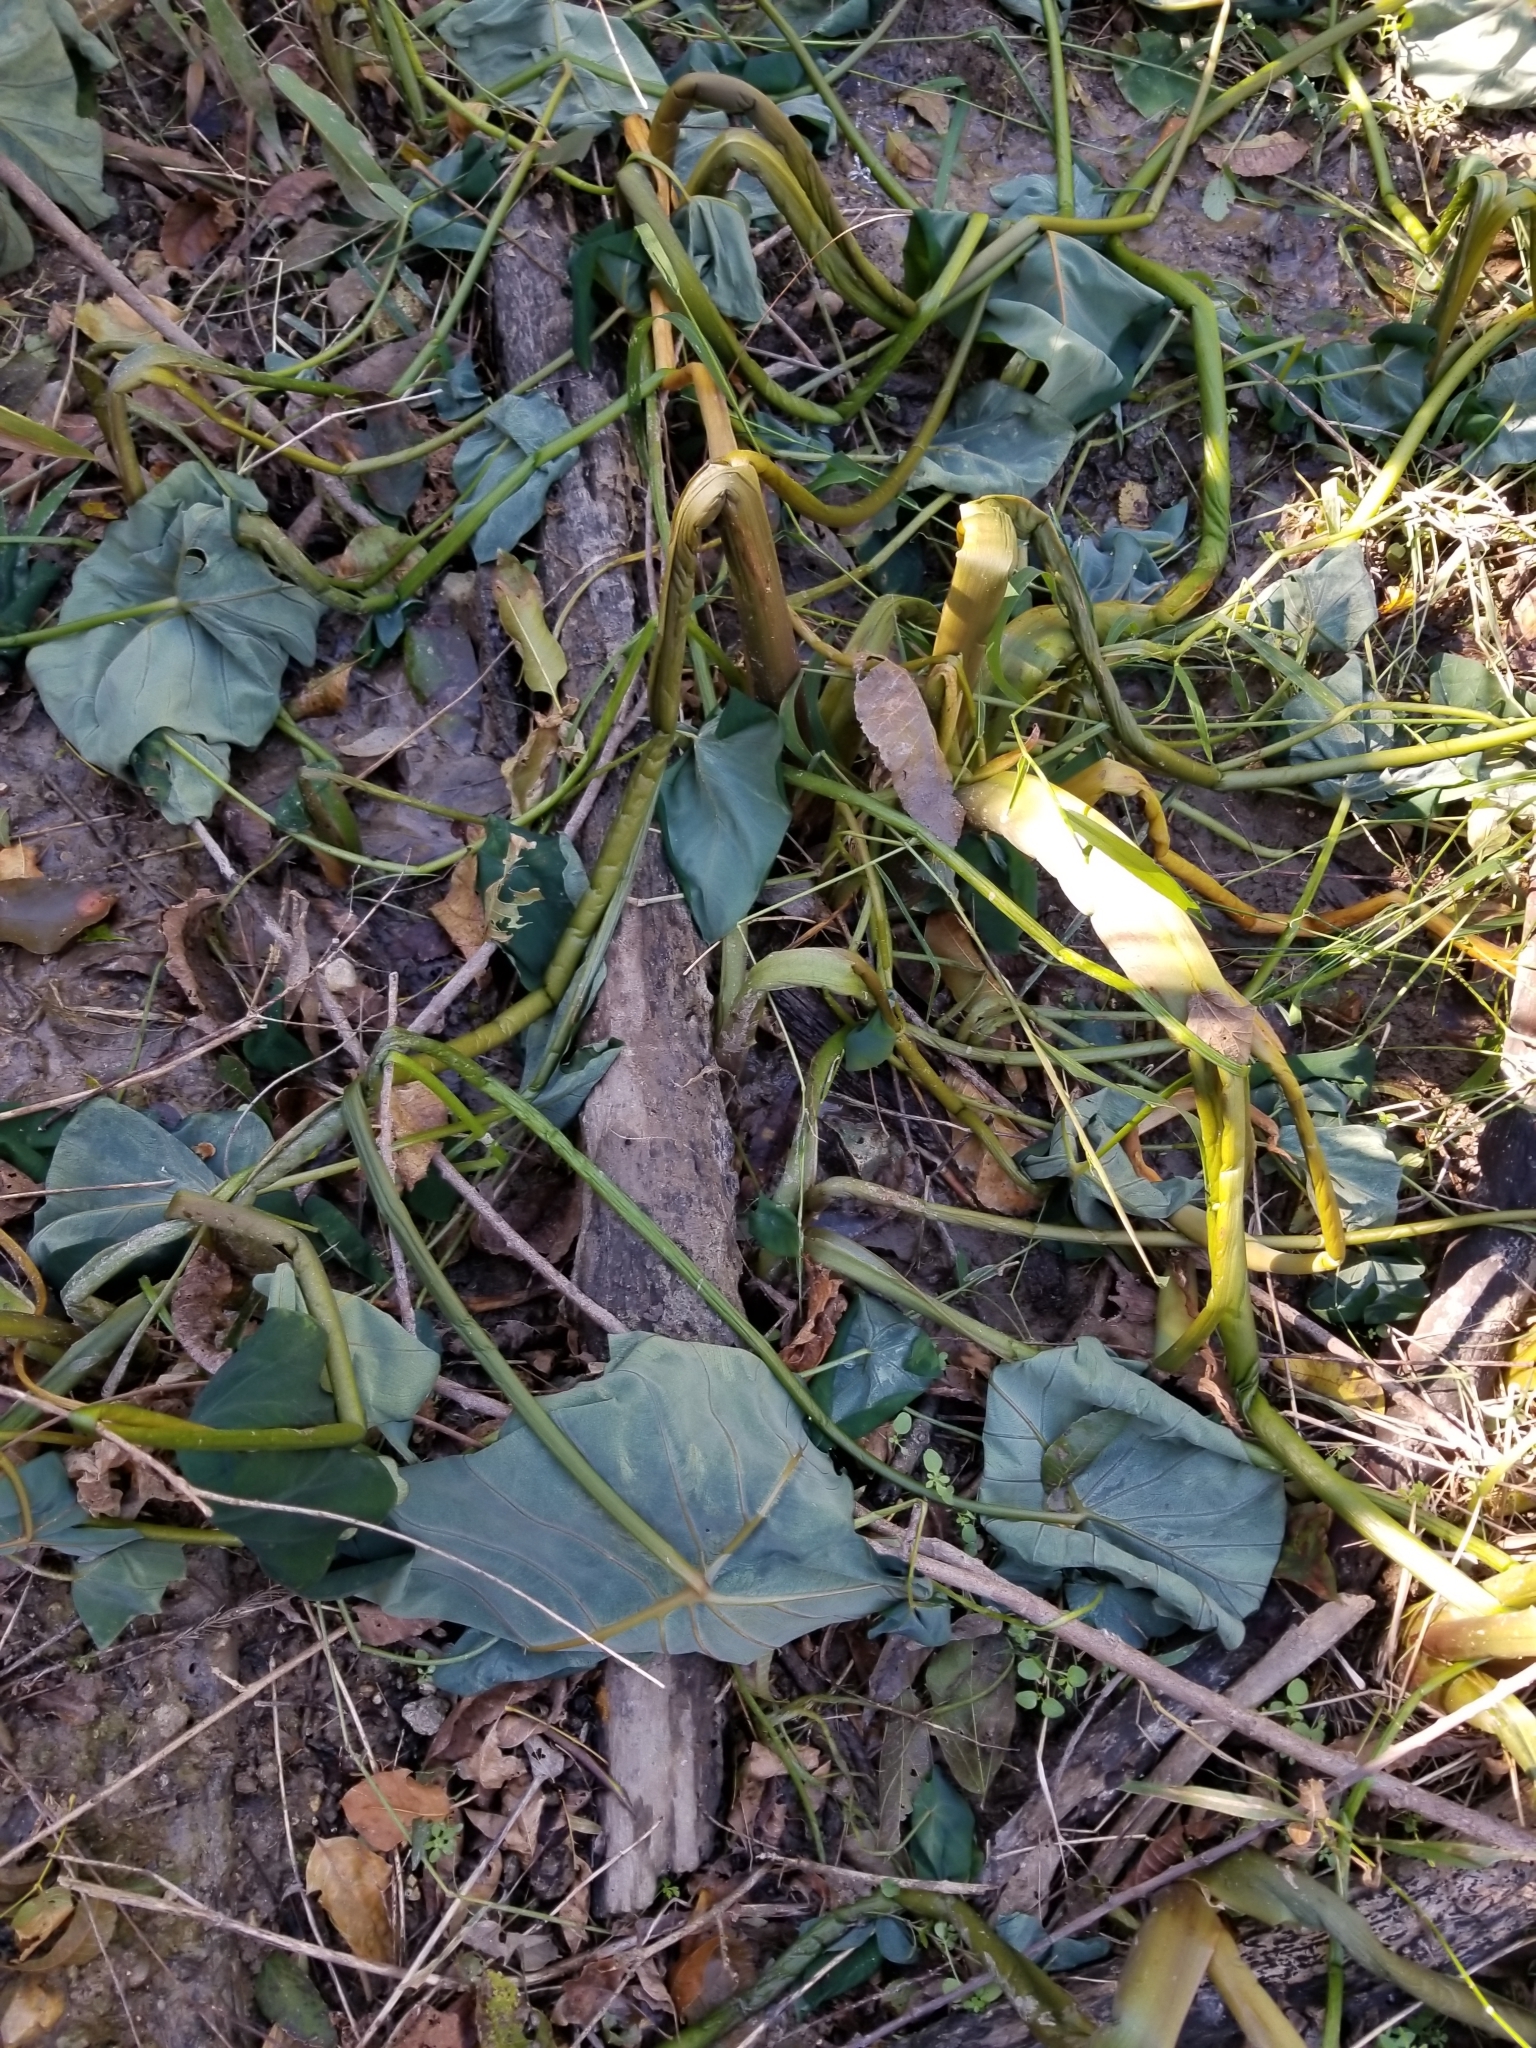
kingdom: Plantae
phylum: Tracheophyta
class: Liliopsida
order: Alismatales
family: Araceae
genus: Colocasia
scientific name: Colocasia esculenta
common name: Taro
